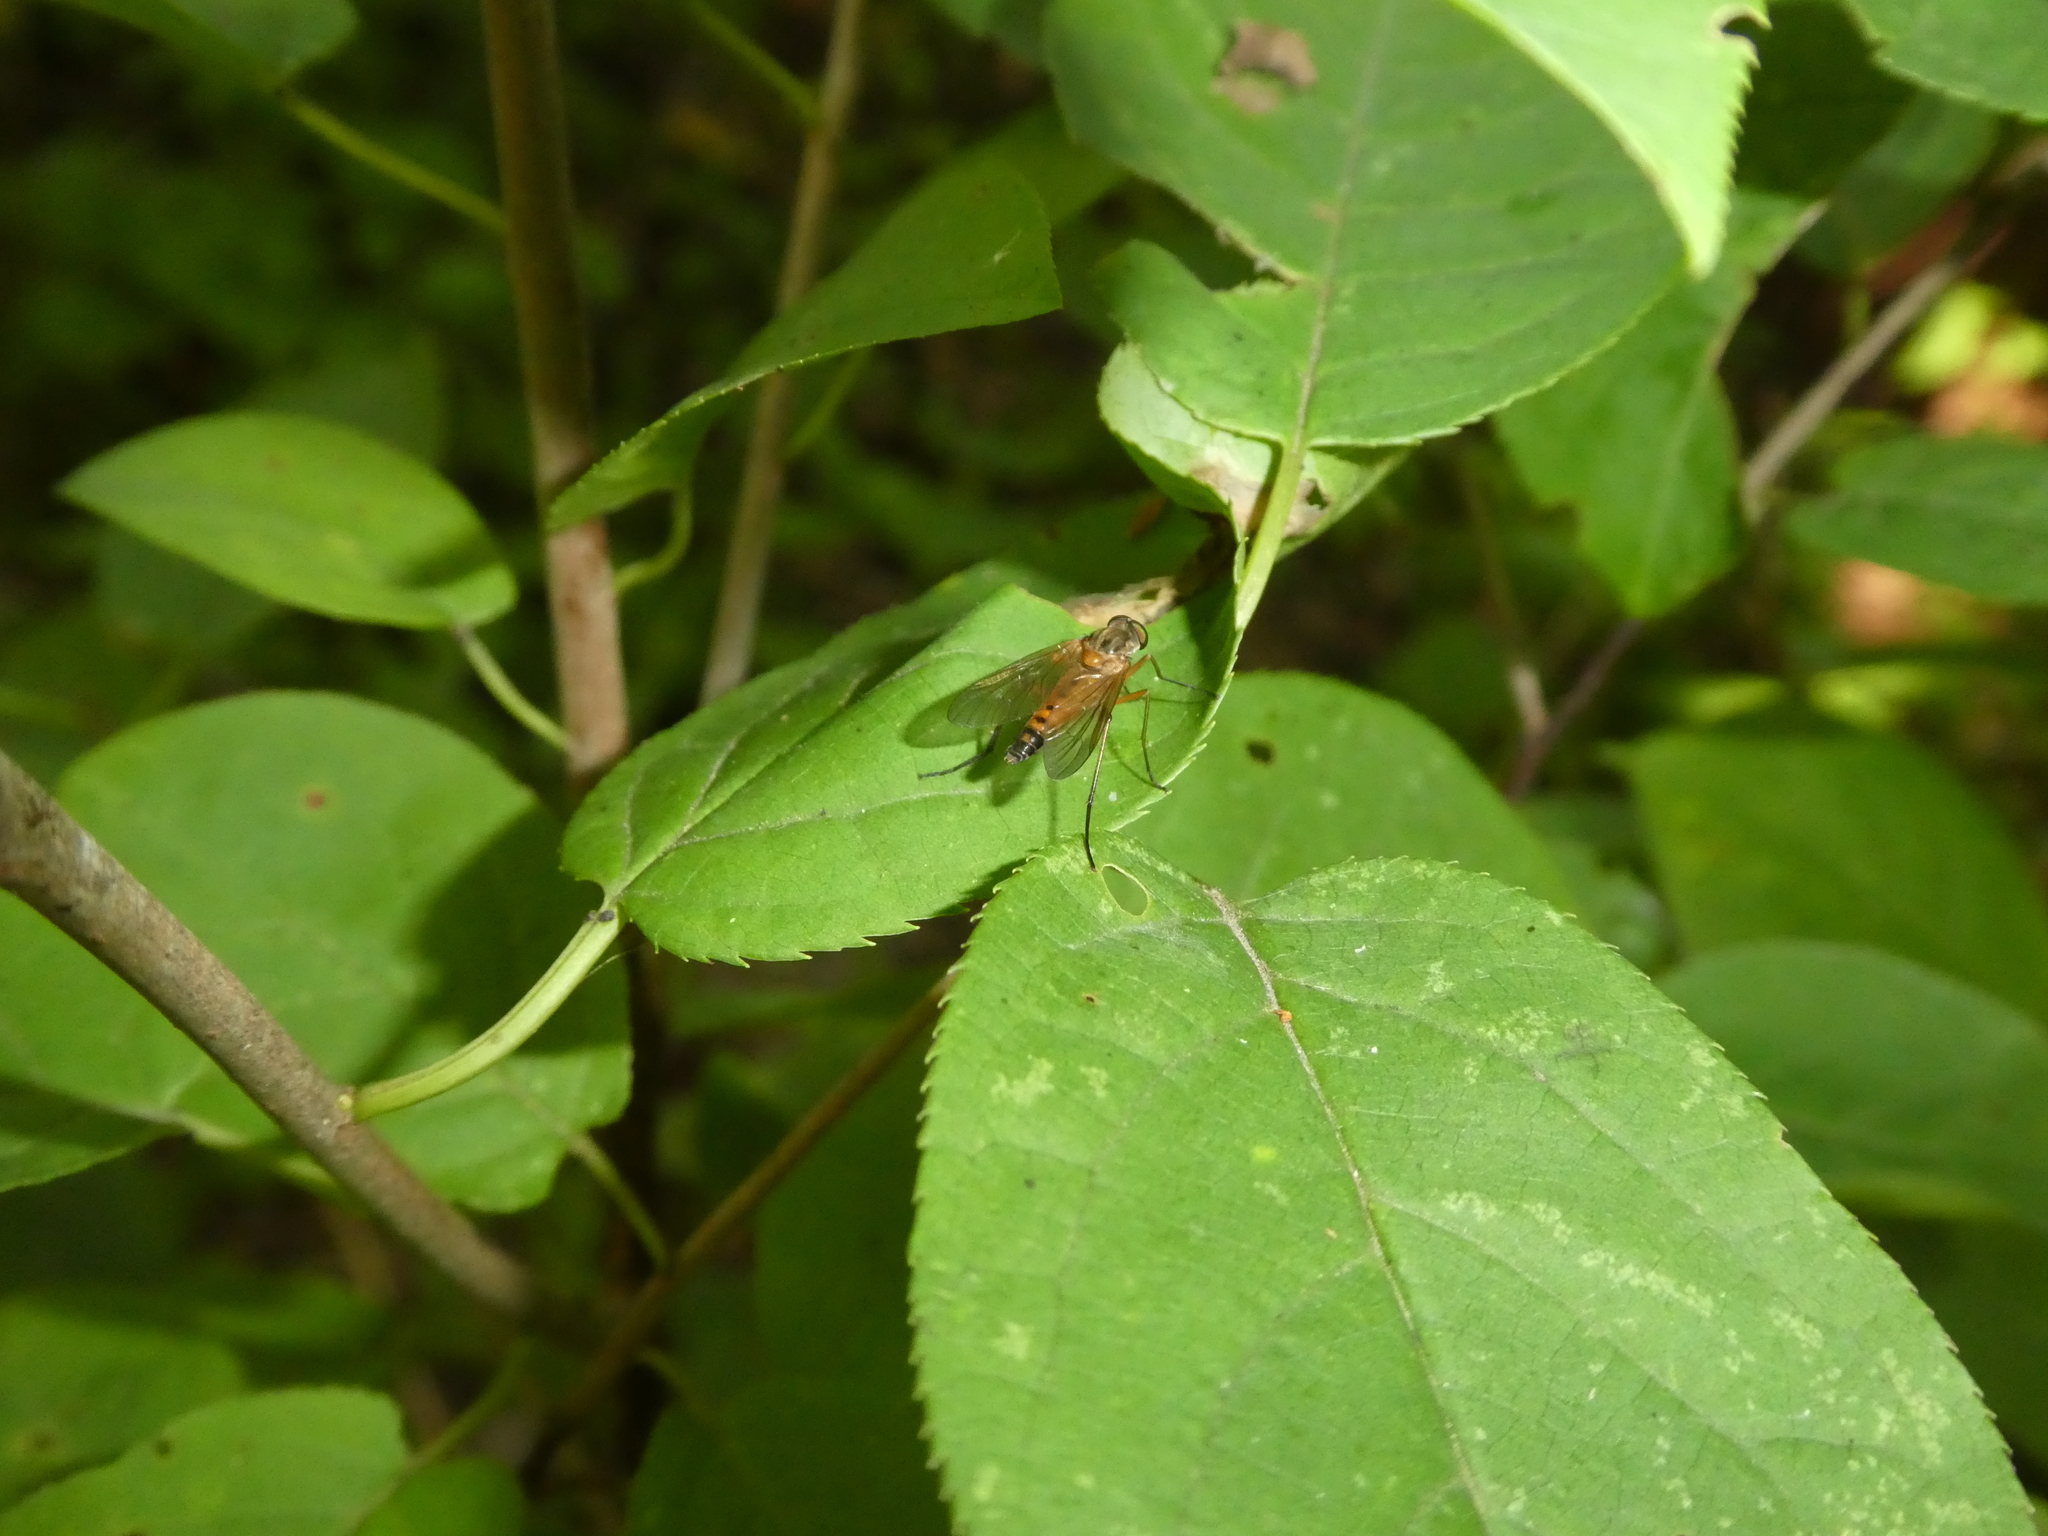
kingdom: Animalia
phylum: Arthropoda
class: Insecta
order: Diptera
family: Rhagionidae
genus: Rhagio
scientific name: Rhagio tringaria
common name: Marsh snipefly
